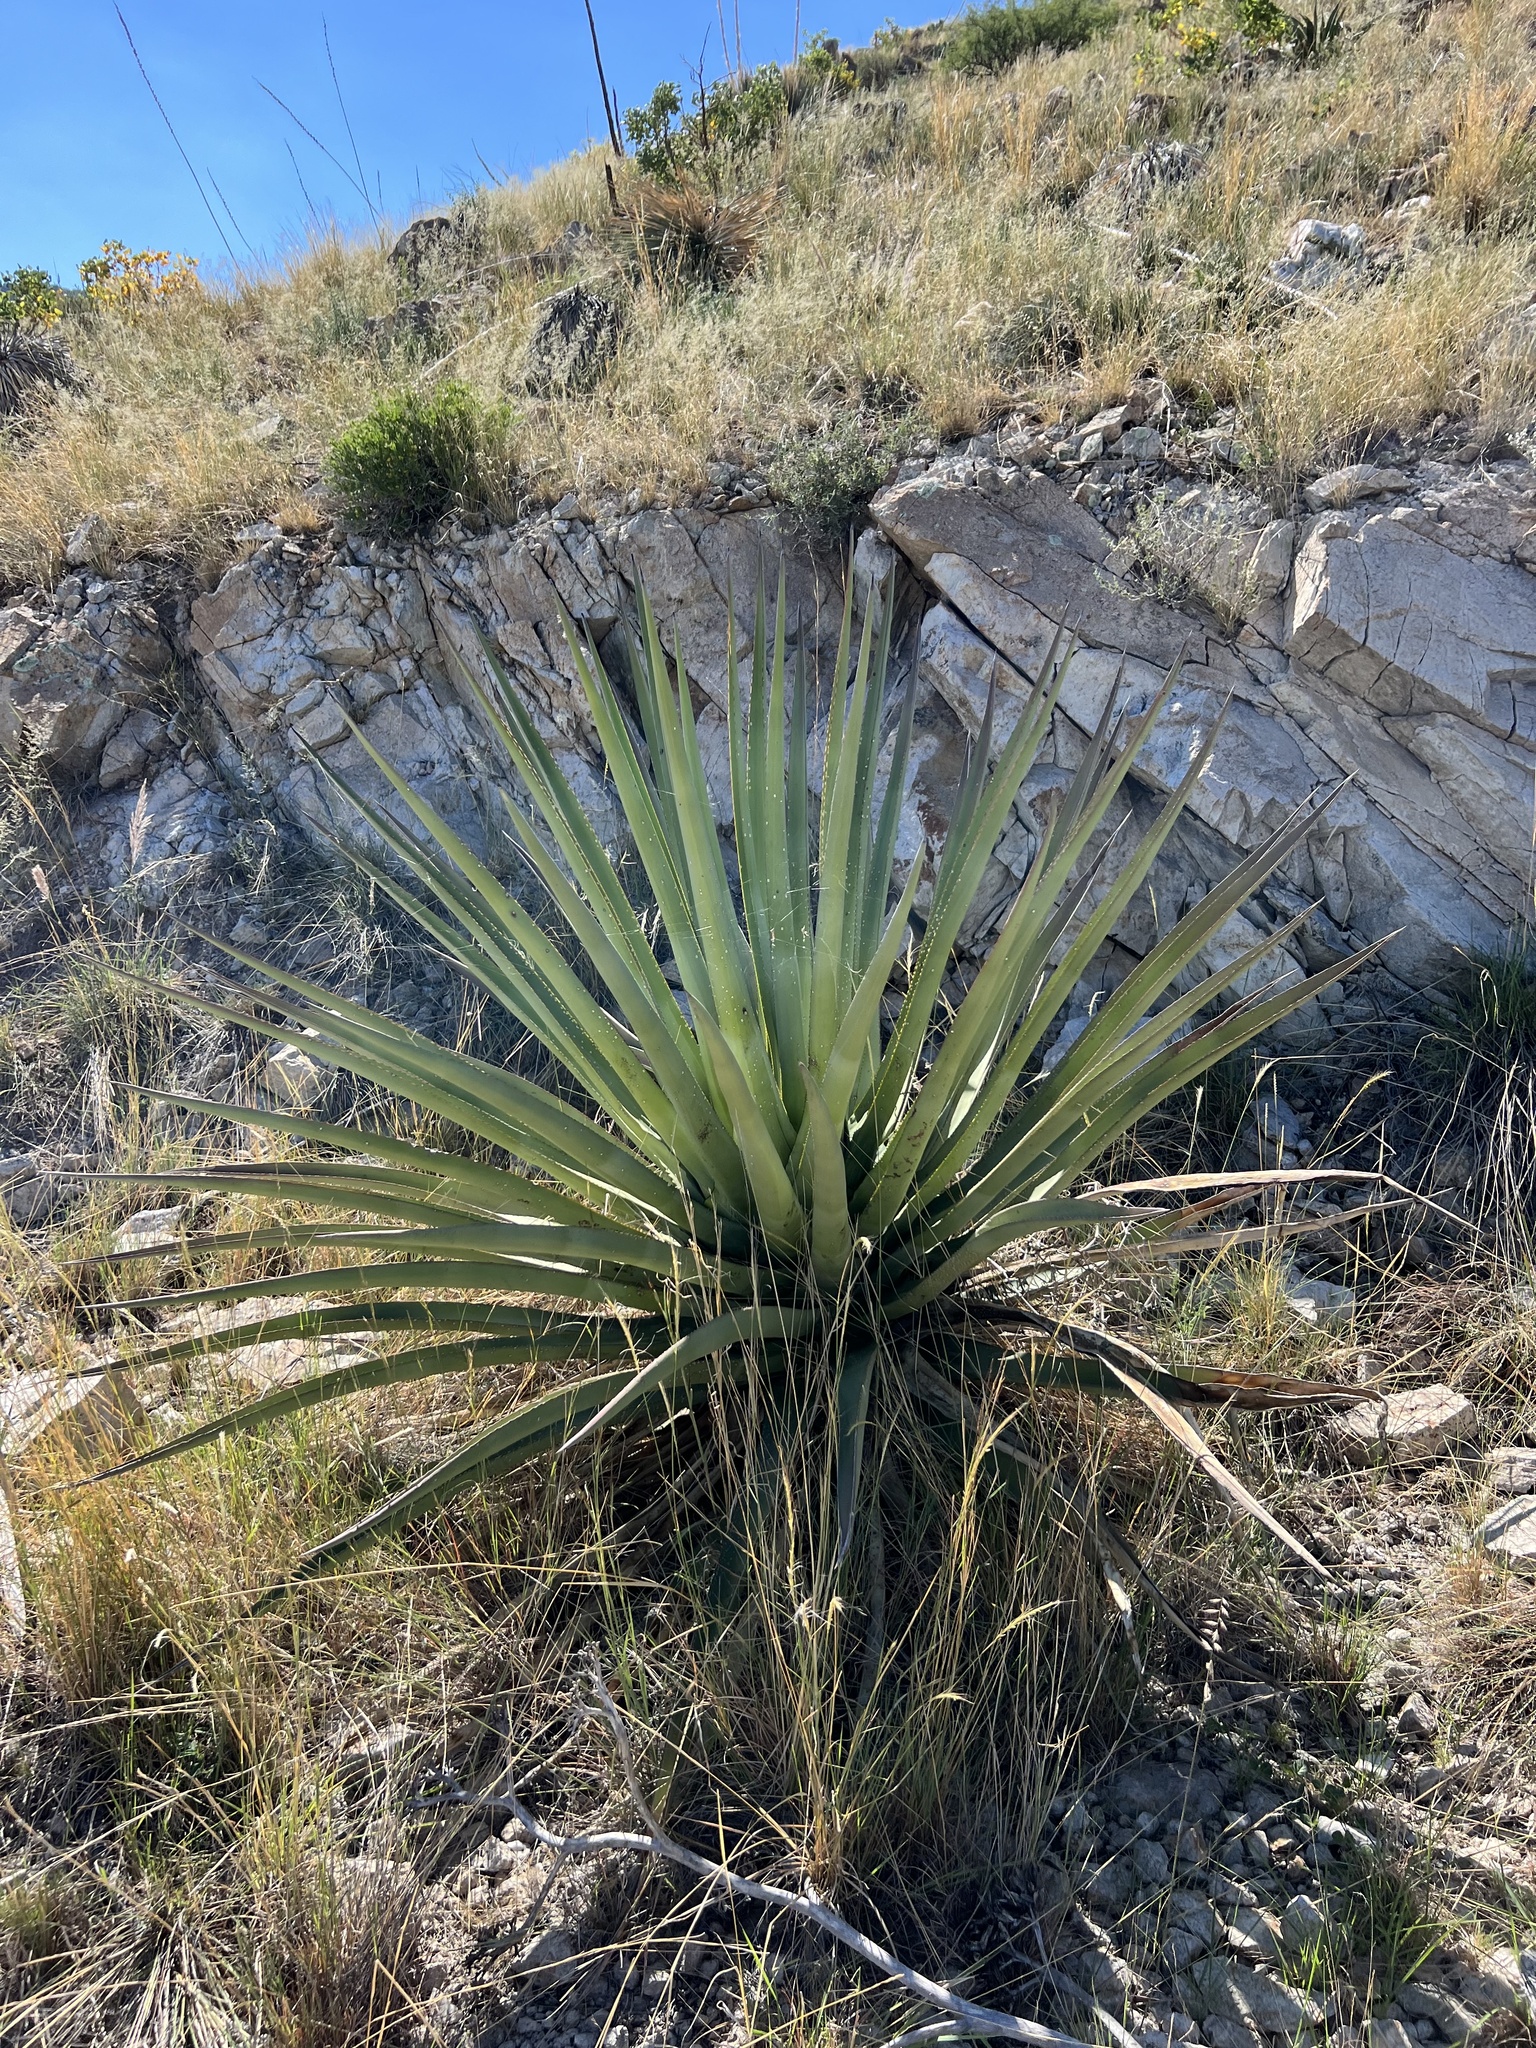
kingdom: Plantae
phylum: Tracheophyta
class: Liliopsida
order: Asparagales
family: Asparagaceae
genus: Agave
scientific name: Agave palmeri
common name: Palmer agave
